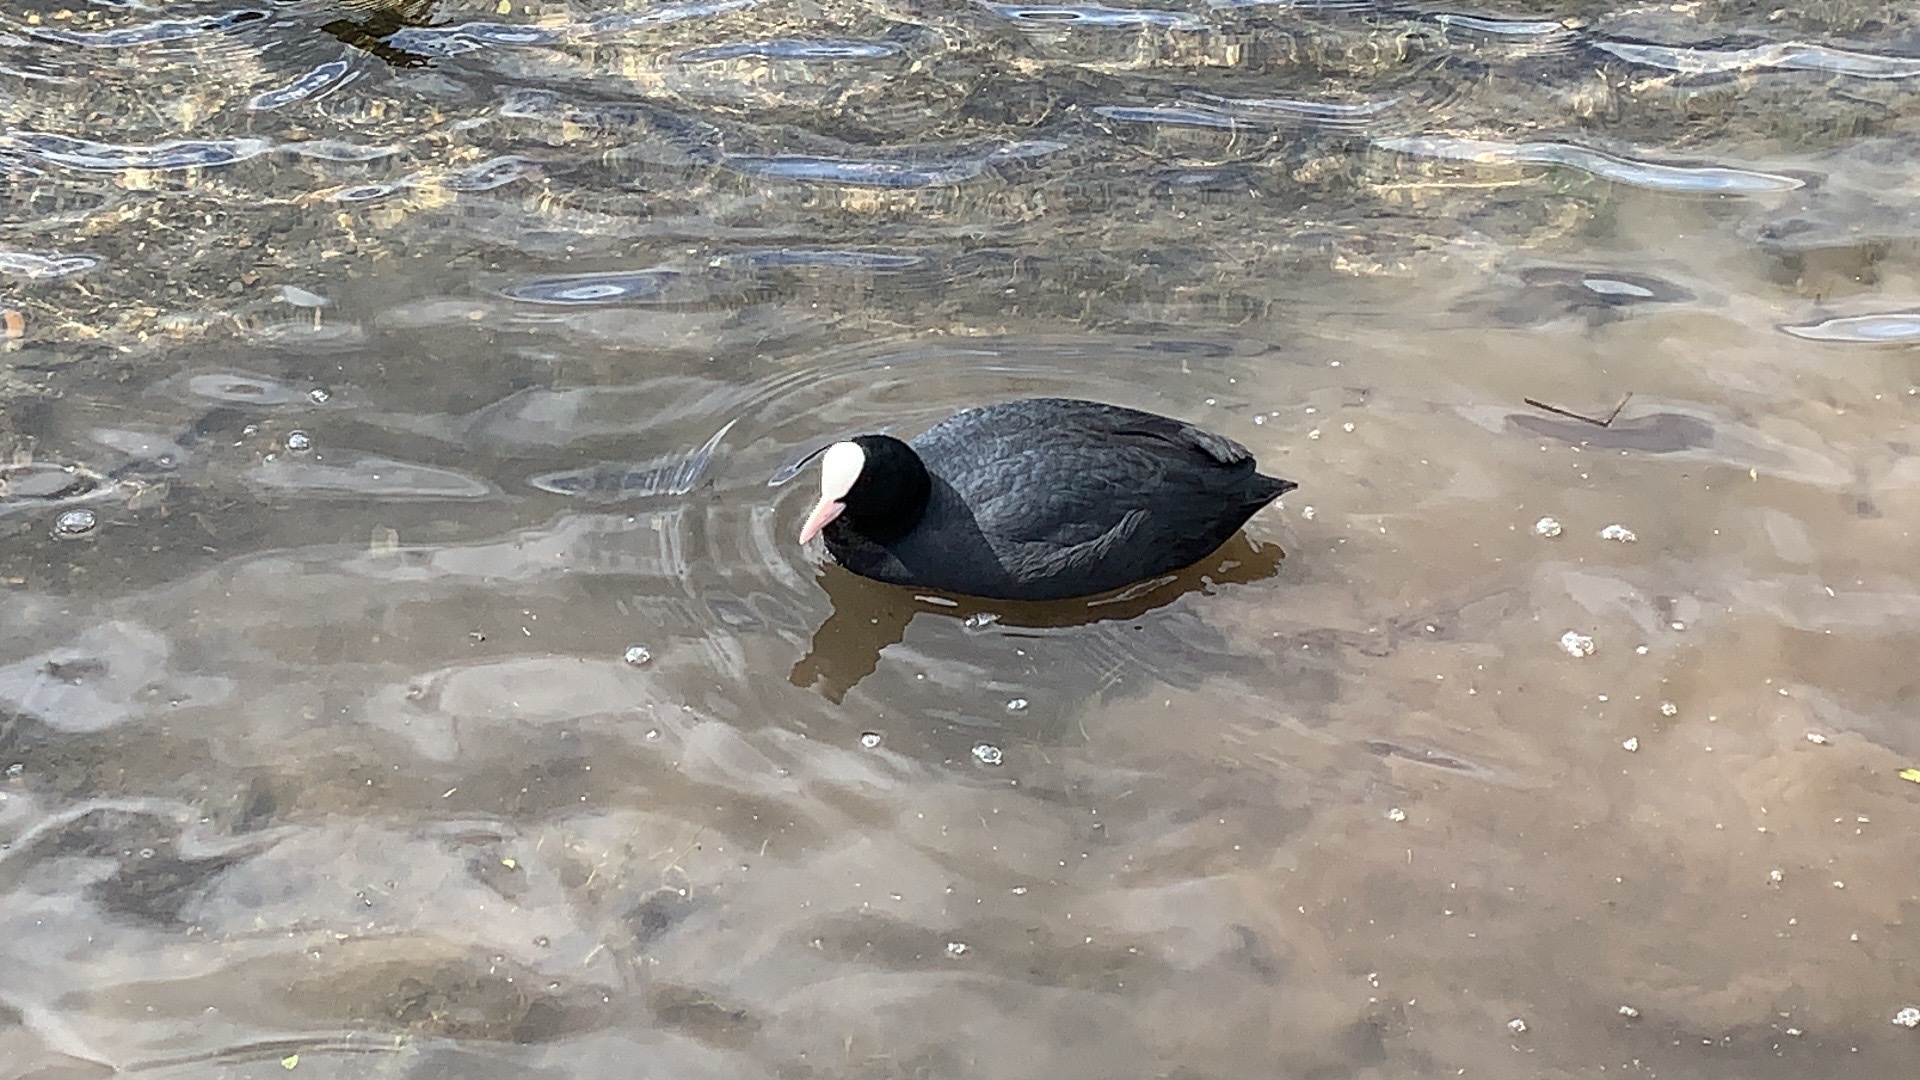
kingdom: Animalia
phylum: Chordata
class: Aves
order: Gruiformes
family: Rallidae
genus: Fulica
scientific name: Fulica atra
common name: Eurasian coot
